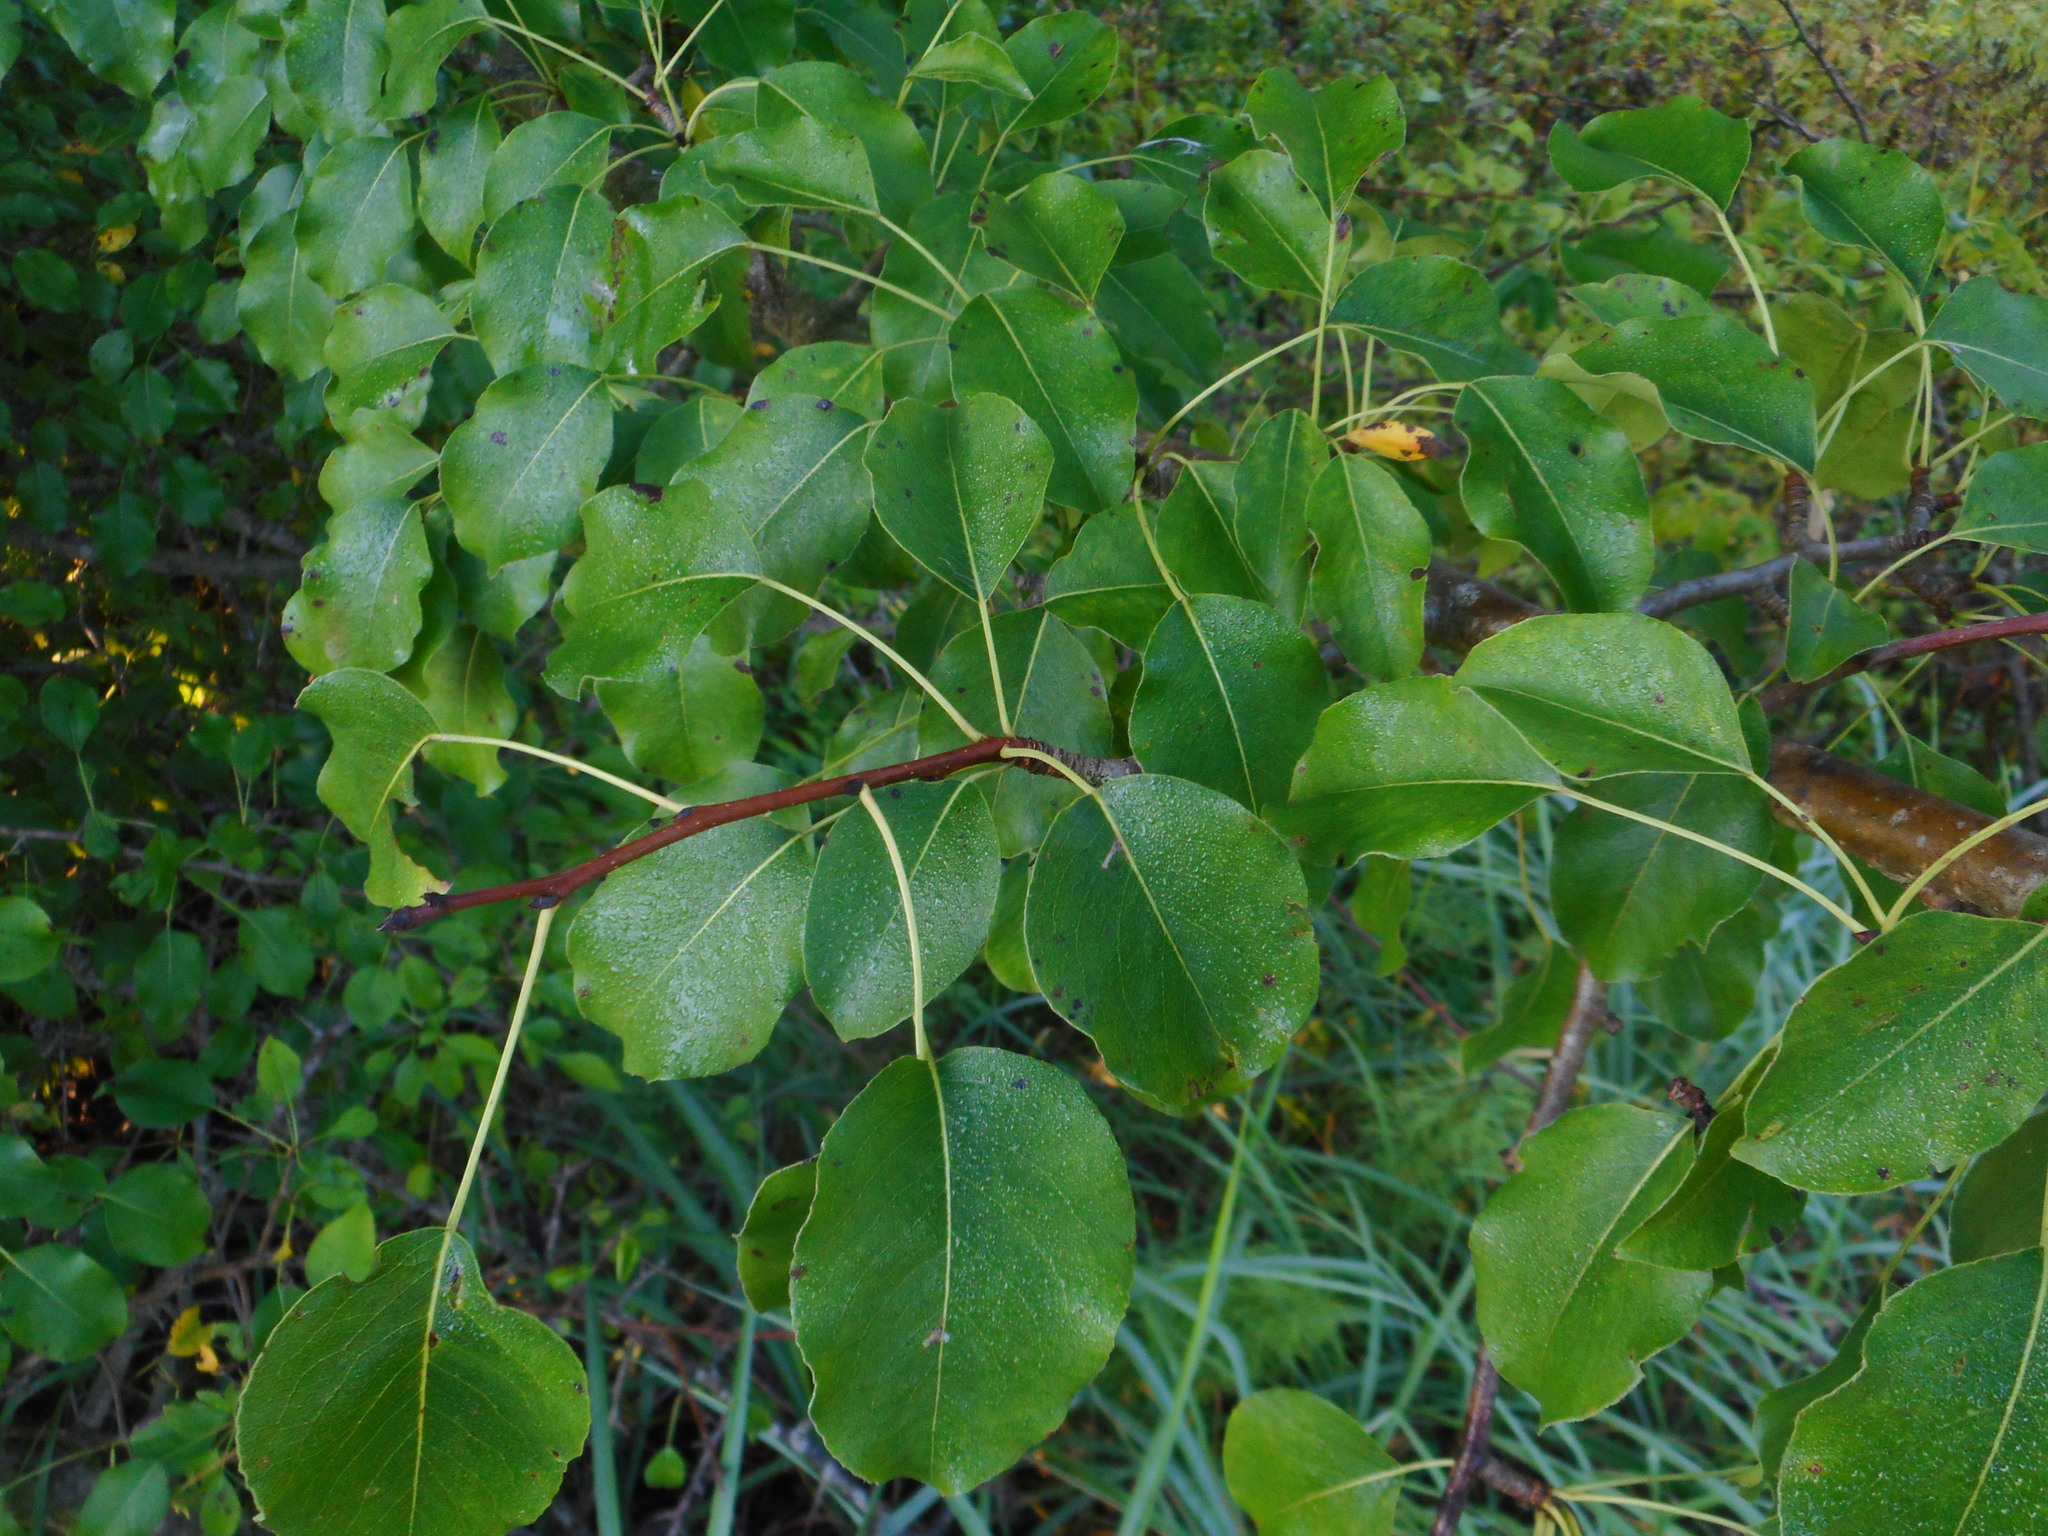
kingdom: Plantae
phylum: Tracheophyta
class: Magnoliopsida
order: Rosales
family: Rosaceae
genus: Pyrus
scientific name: Pyrus communis
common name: Pear
